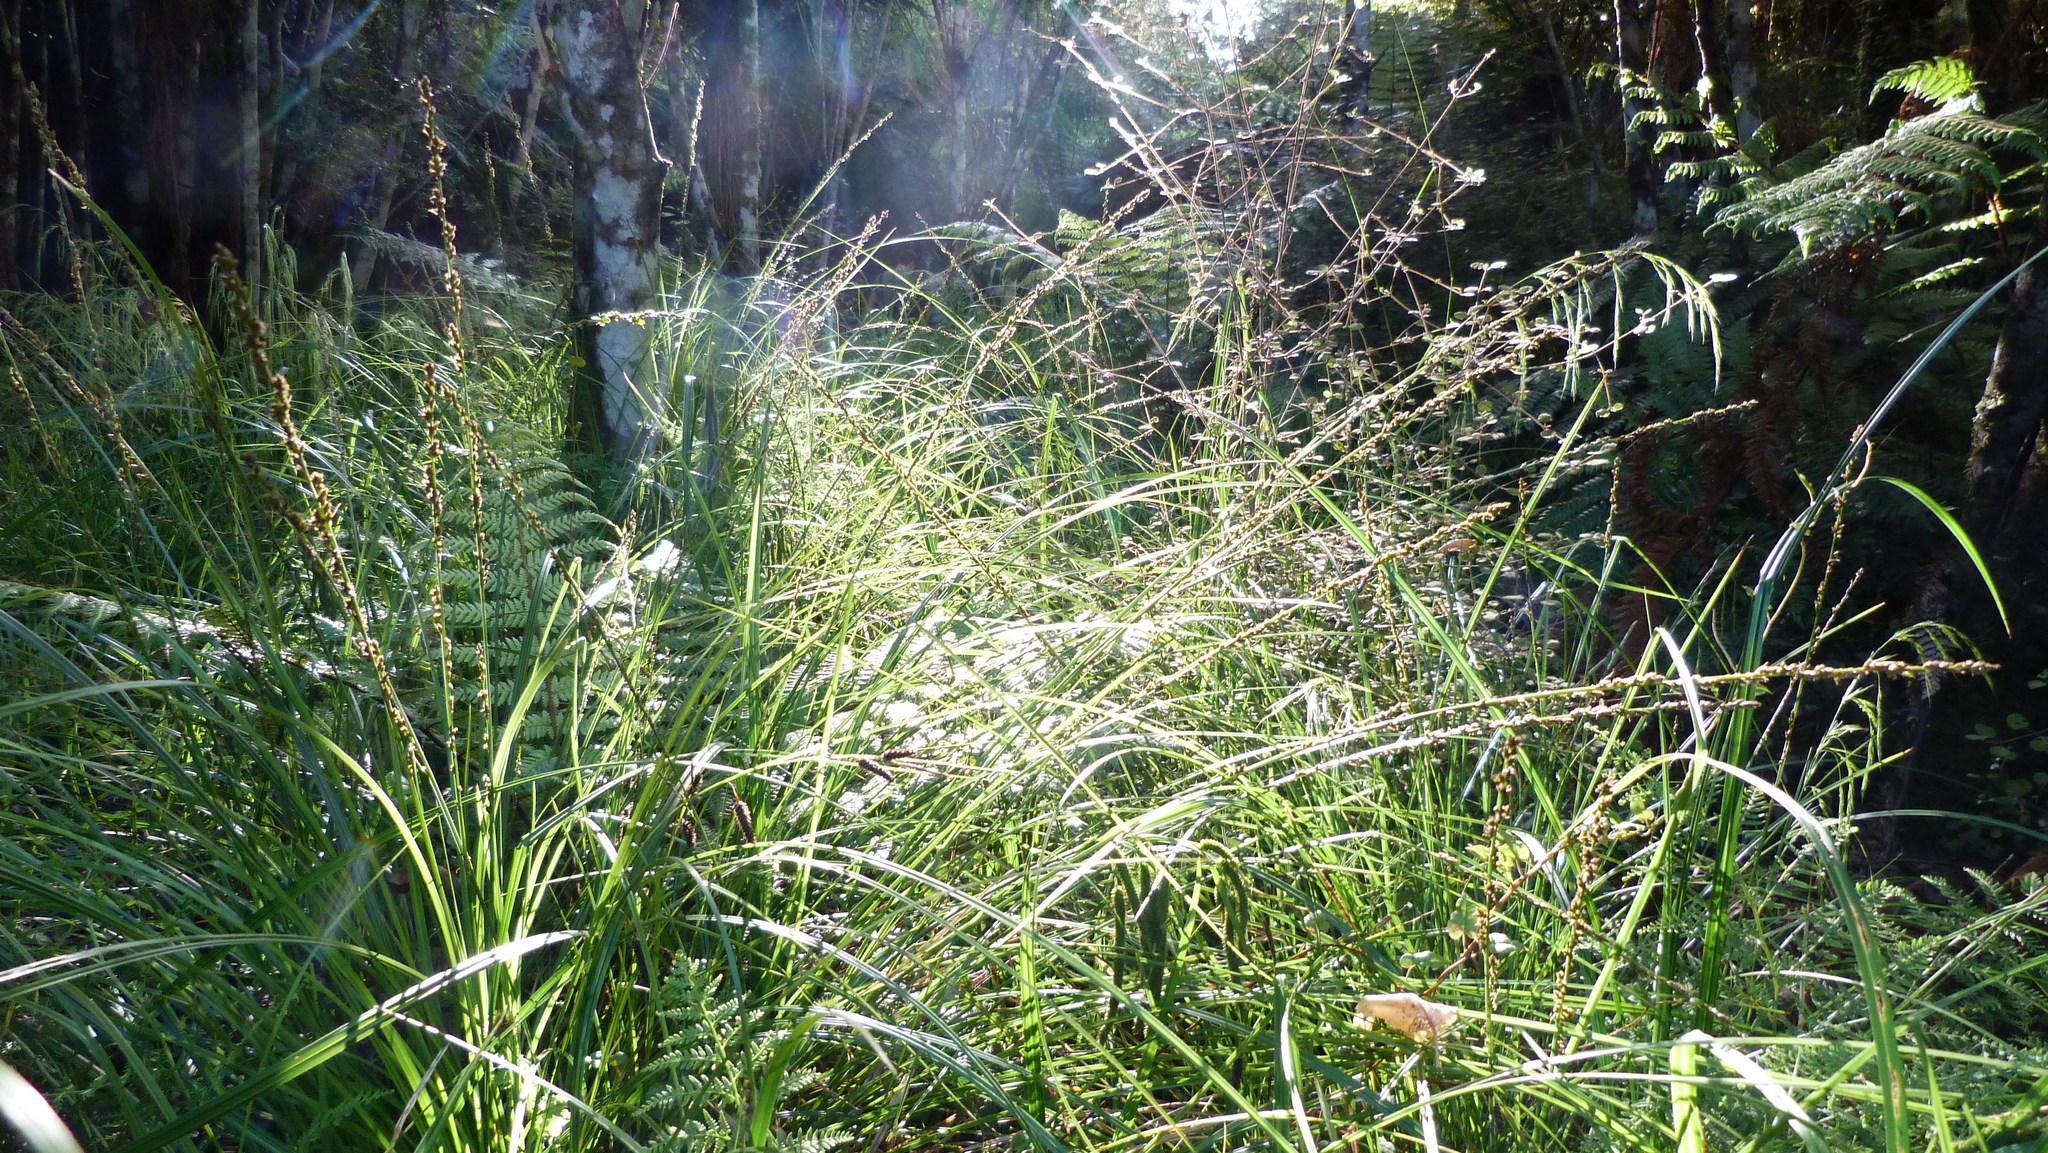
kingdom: Plantae
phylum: Tracheophyta
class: Liliopsida
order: Poales
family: Cyperaceae
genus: Carex
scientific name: Carex virgata
